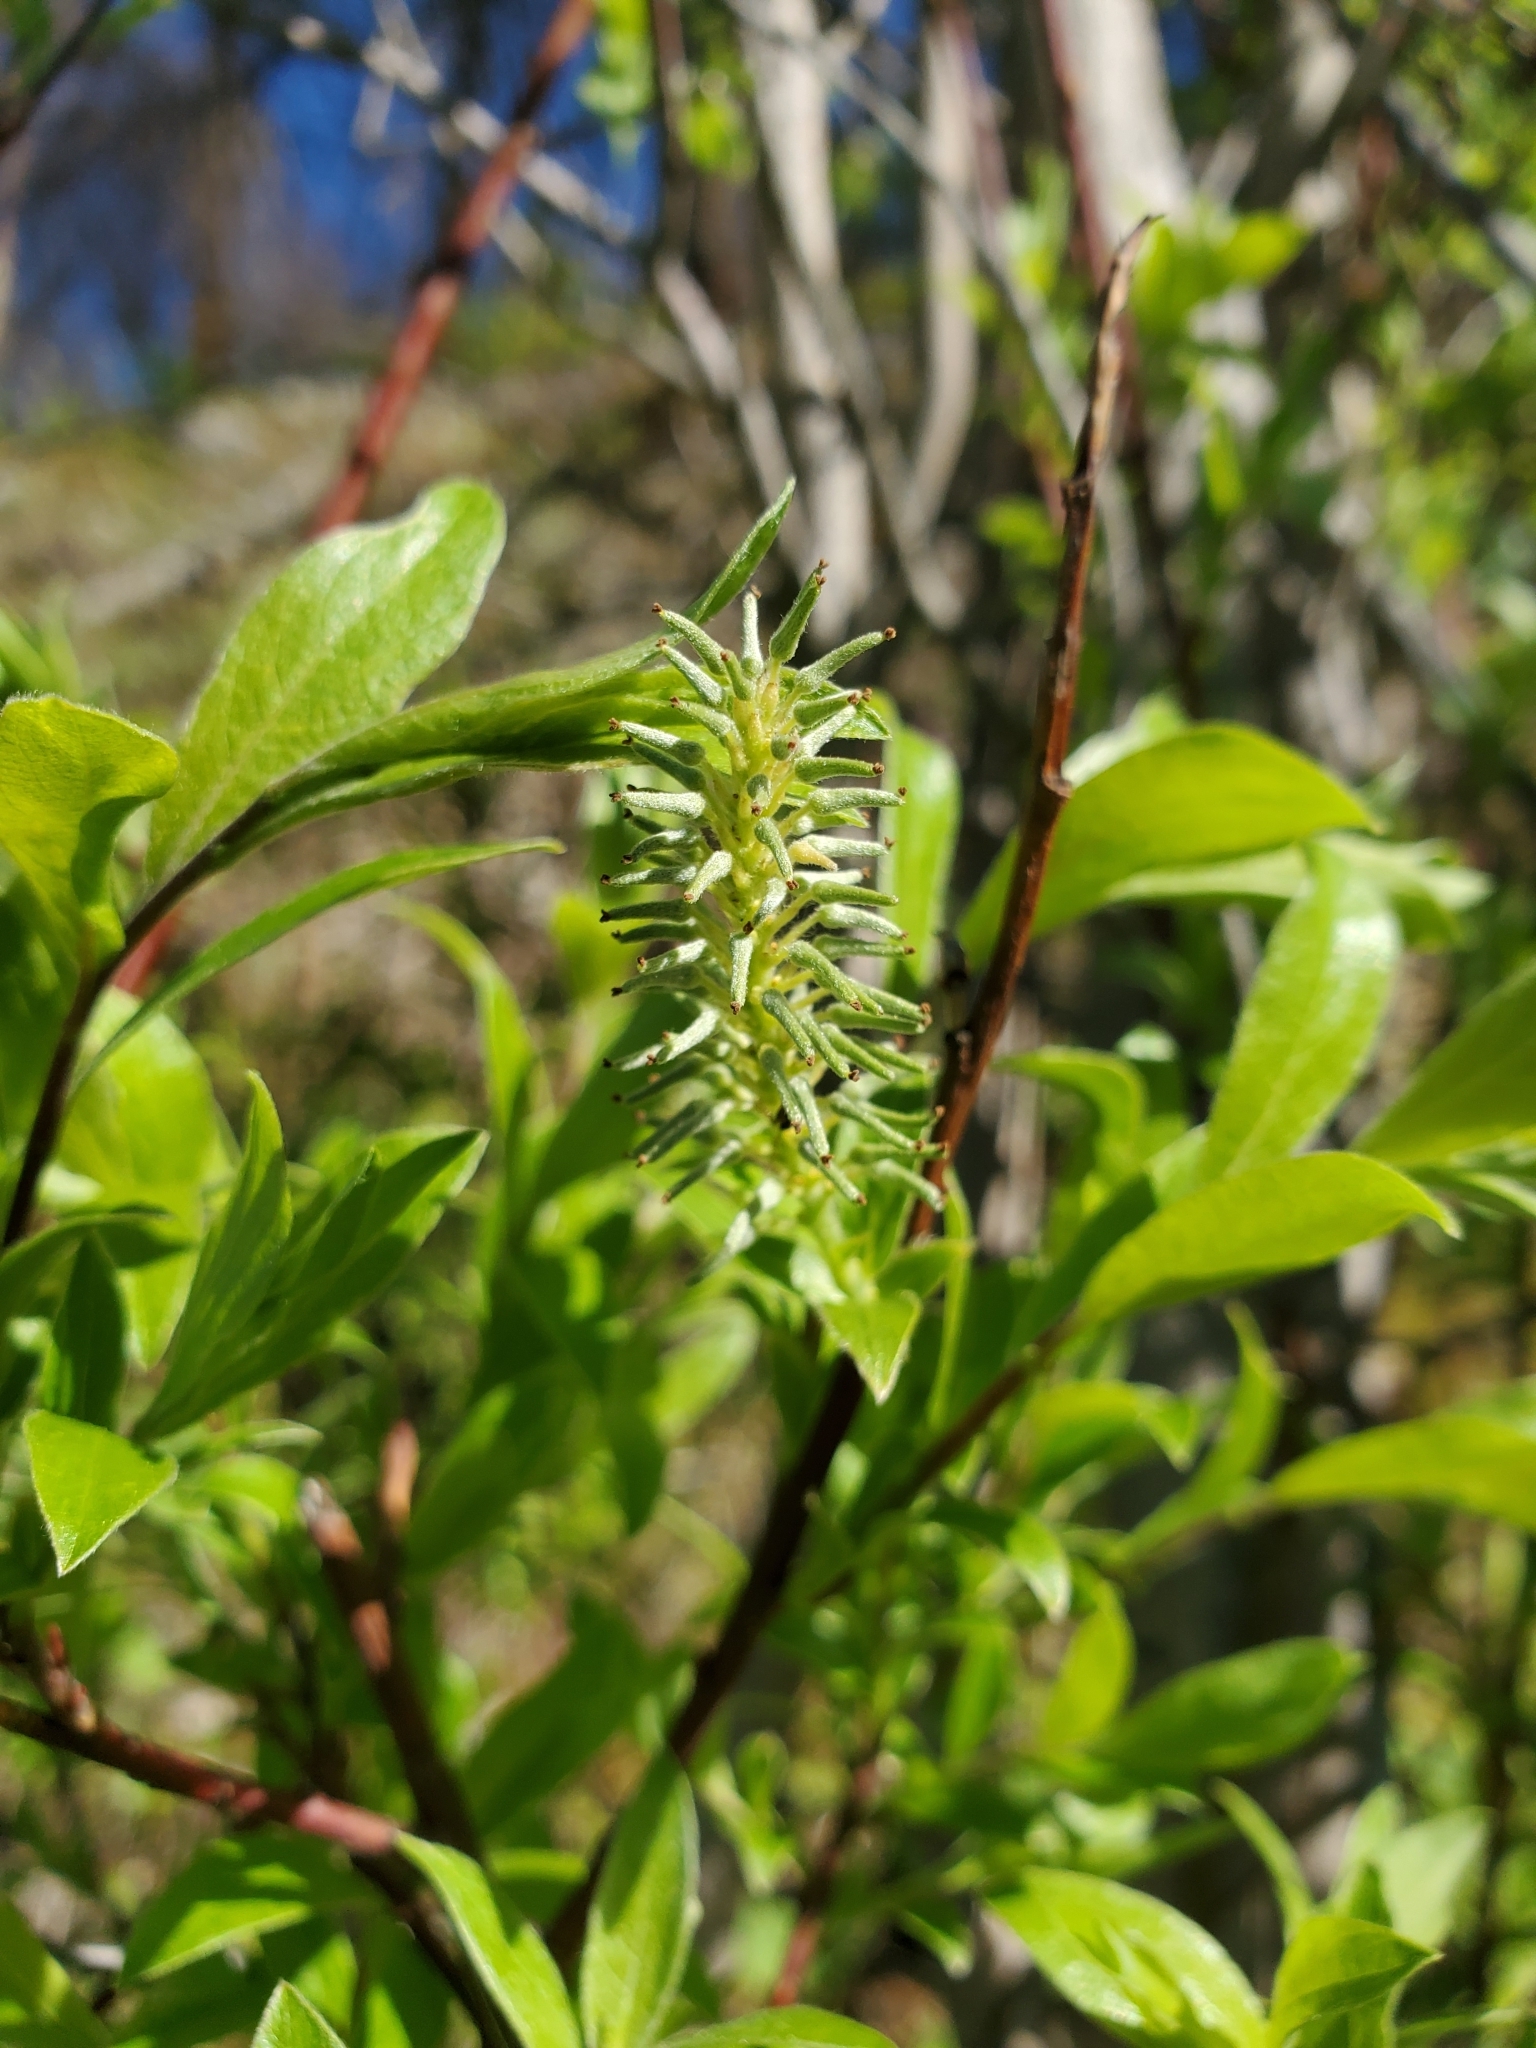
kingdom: Plantae
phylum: Tracheophyta
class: Magnoliopsida
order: Malpighiales
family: Salicaceae
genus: Salix
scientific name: Salix bebbiana
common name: Bebb's willow
